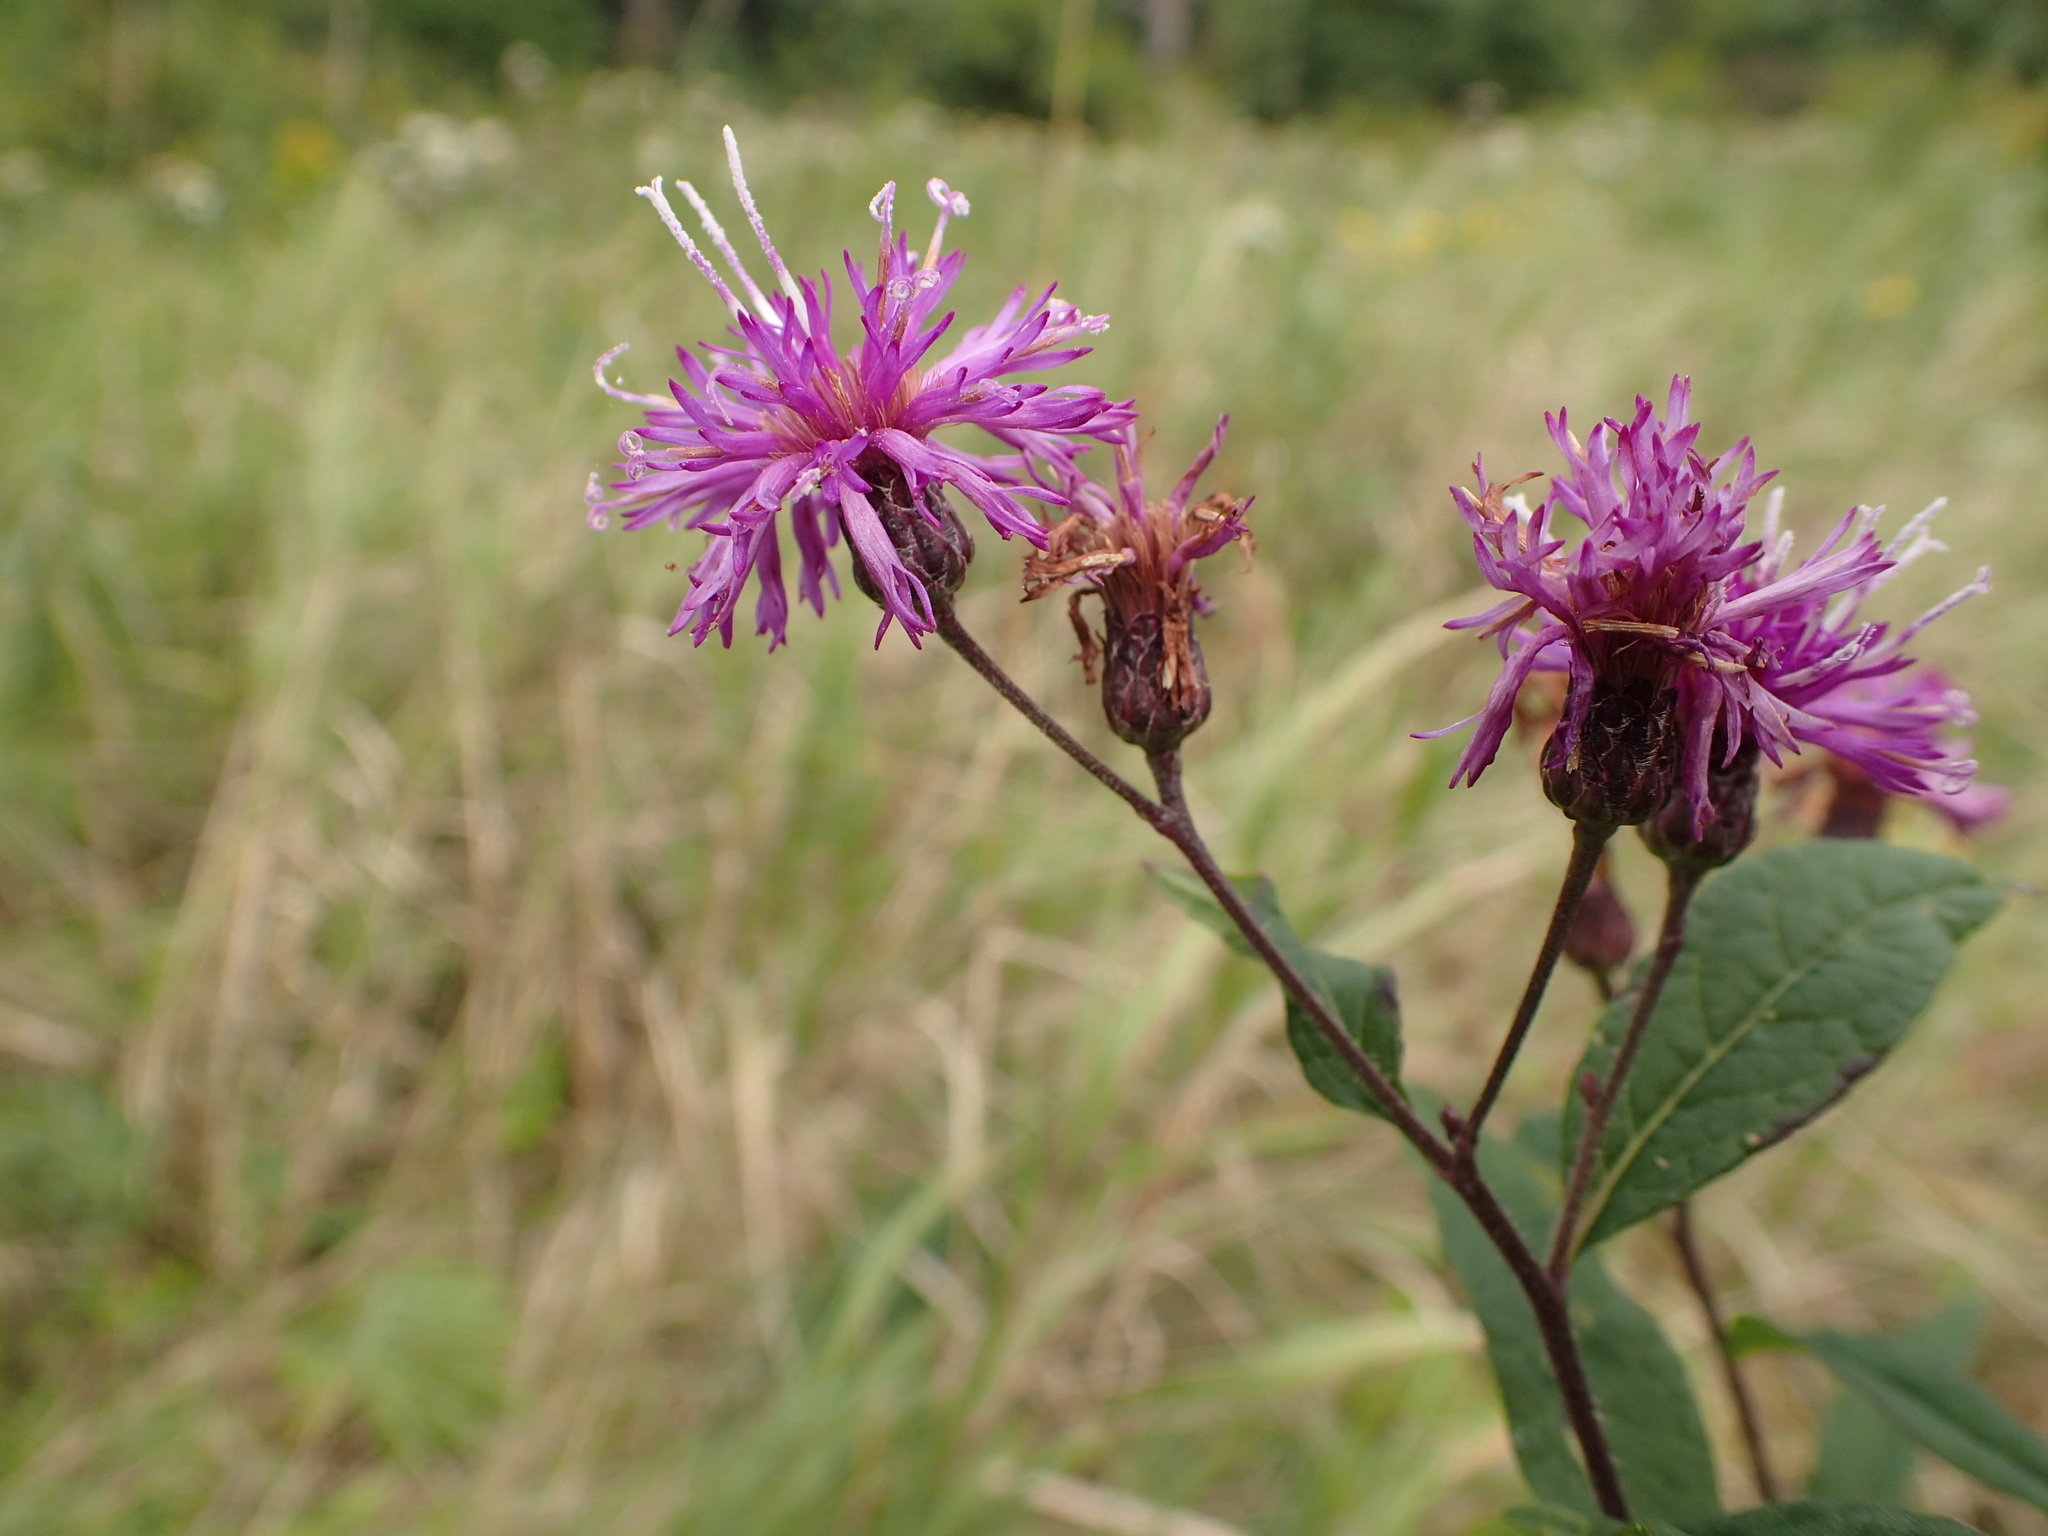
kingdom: Plantae
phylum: Tracheophyta
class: Magnoliopsida
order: Asterales
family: Asteraceae
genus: Vernonia
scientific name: Vernonia gigantea
